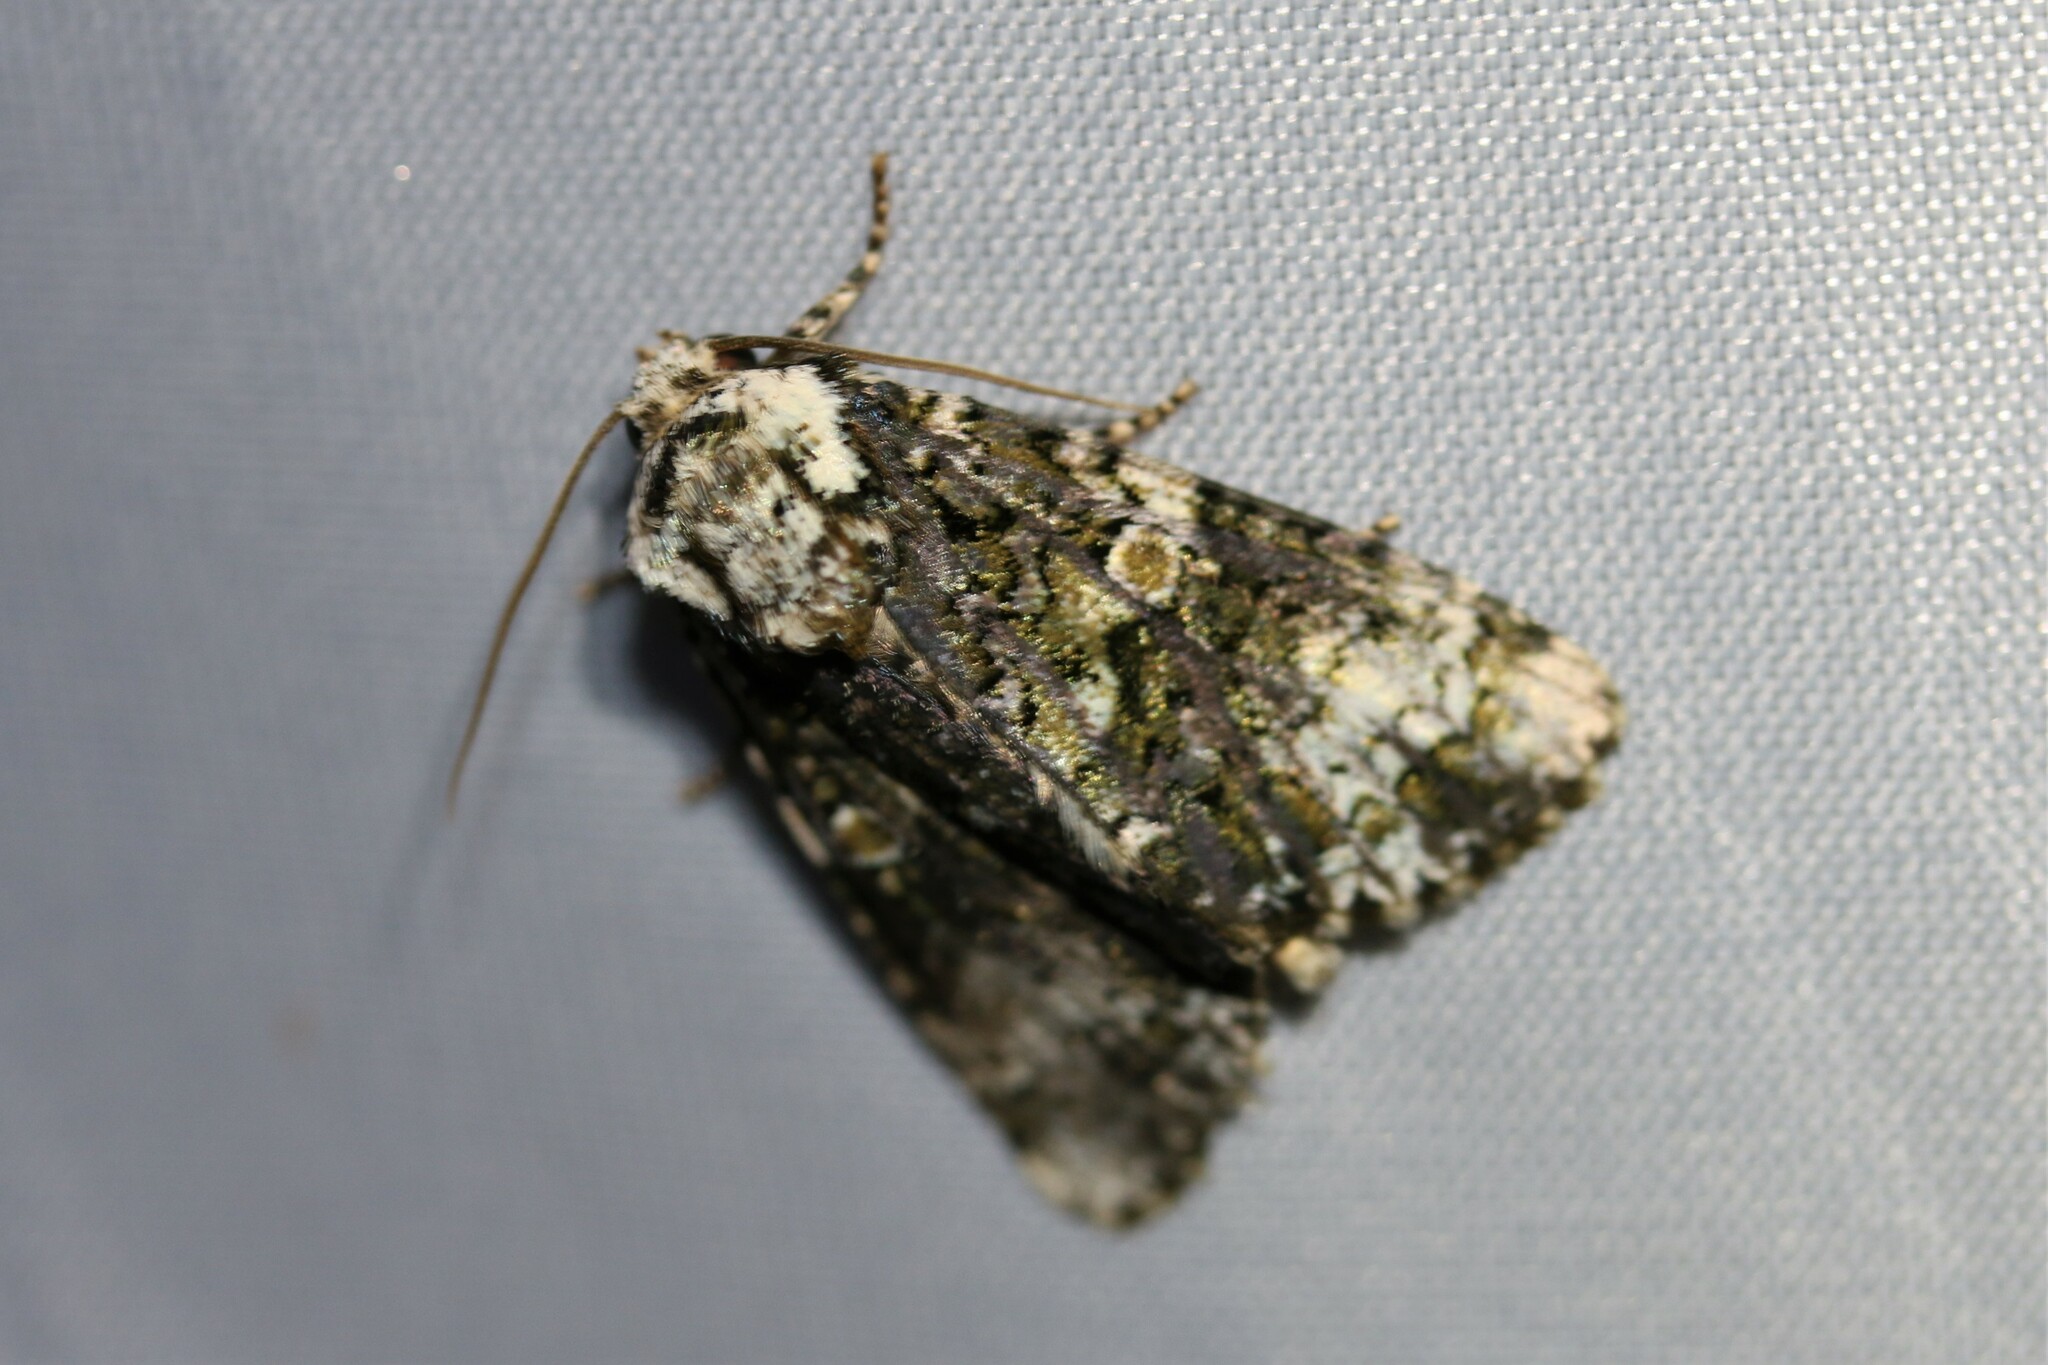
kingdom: Animalia
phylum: Arthropoda
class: Insecta
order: Lepidoptera
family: Noctuidae
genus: Craniophora
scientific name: Craniophora ligustri
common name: Coronet
